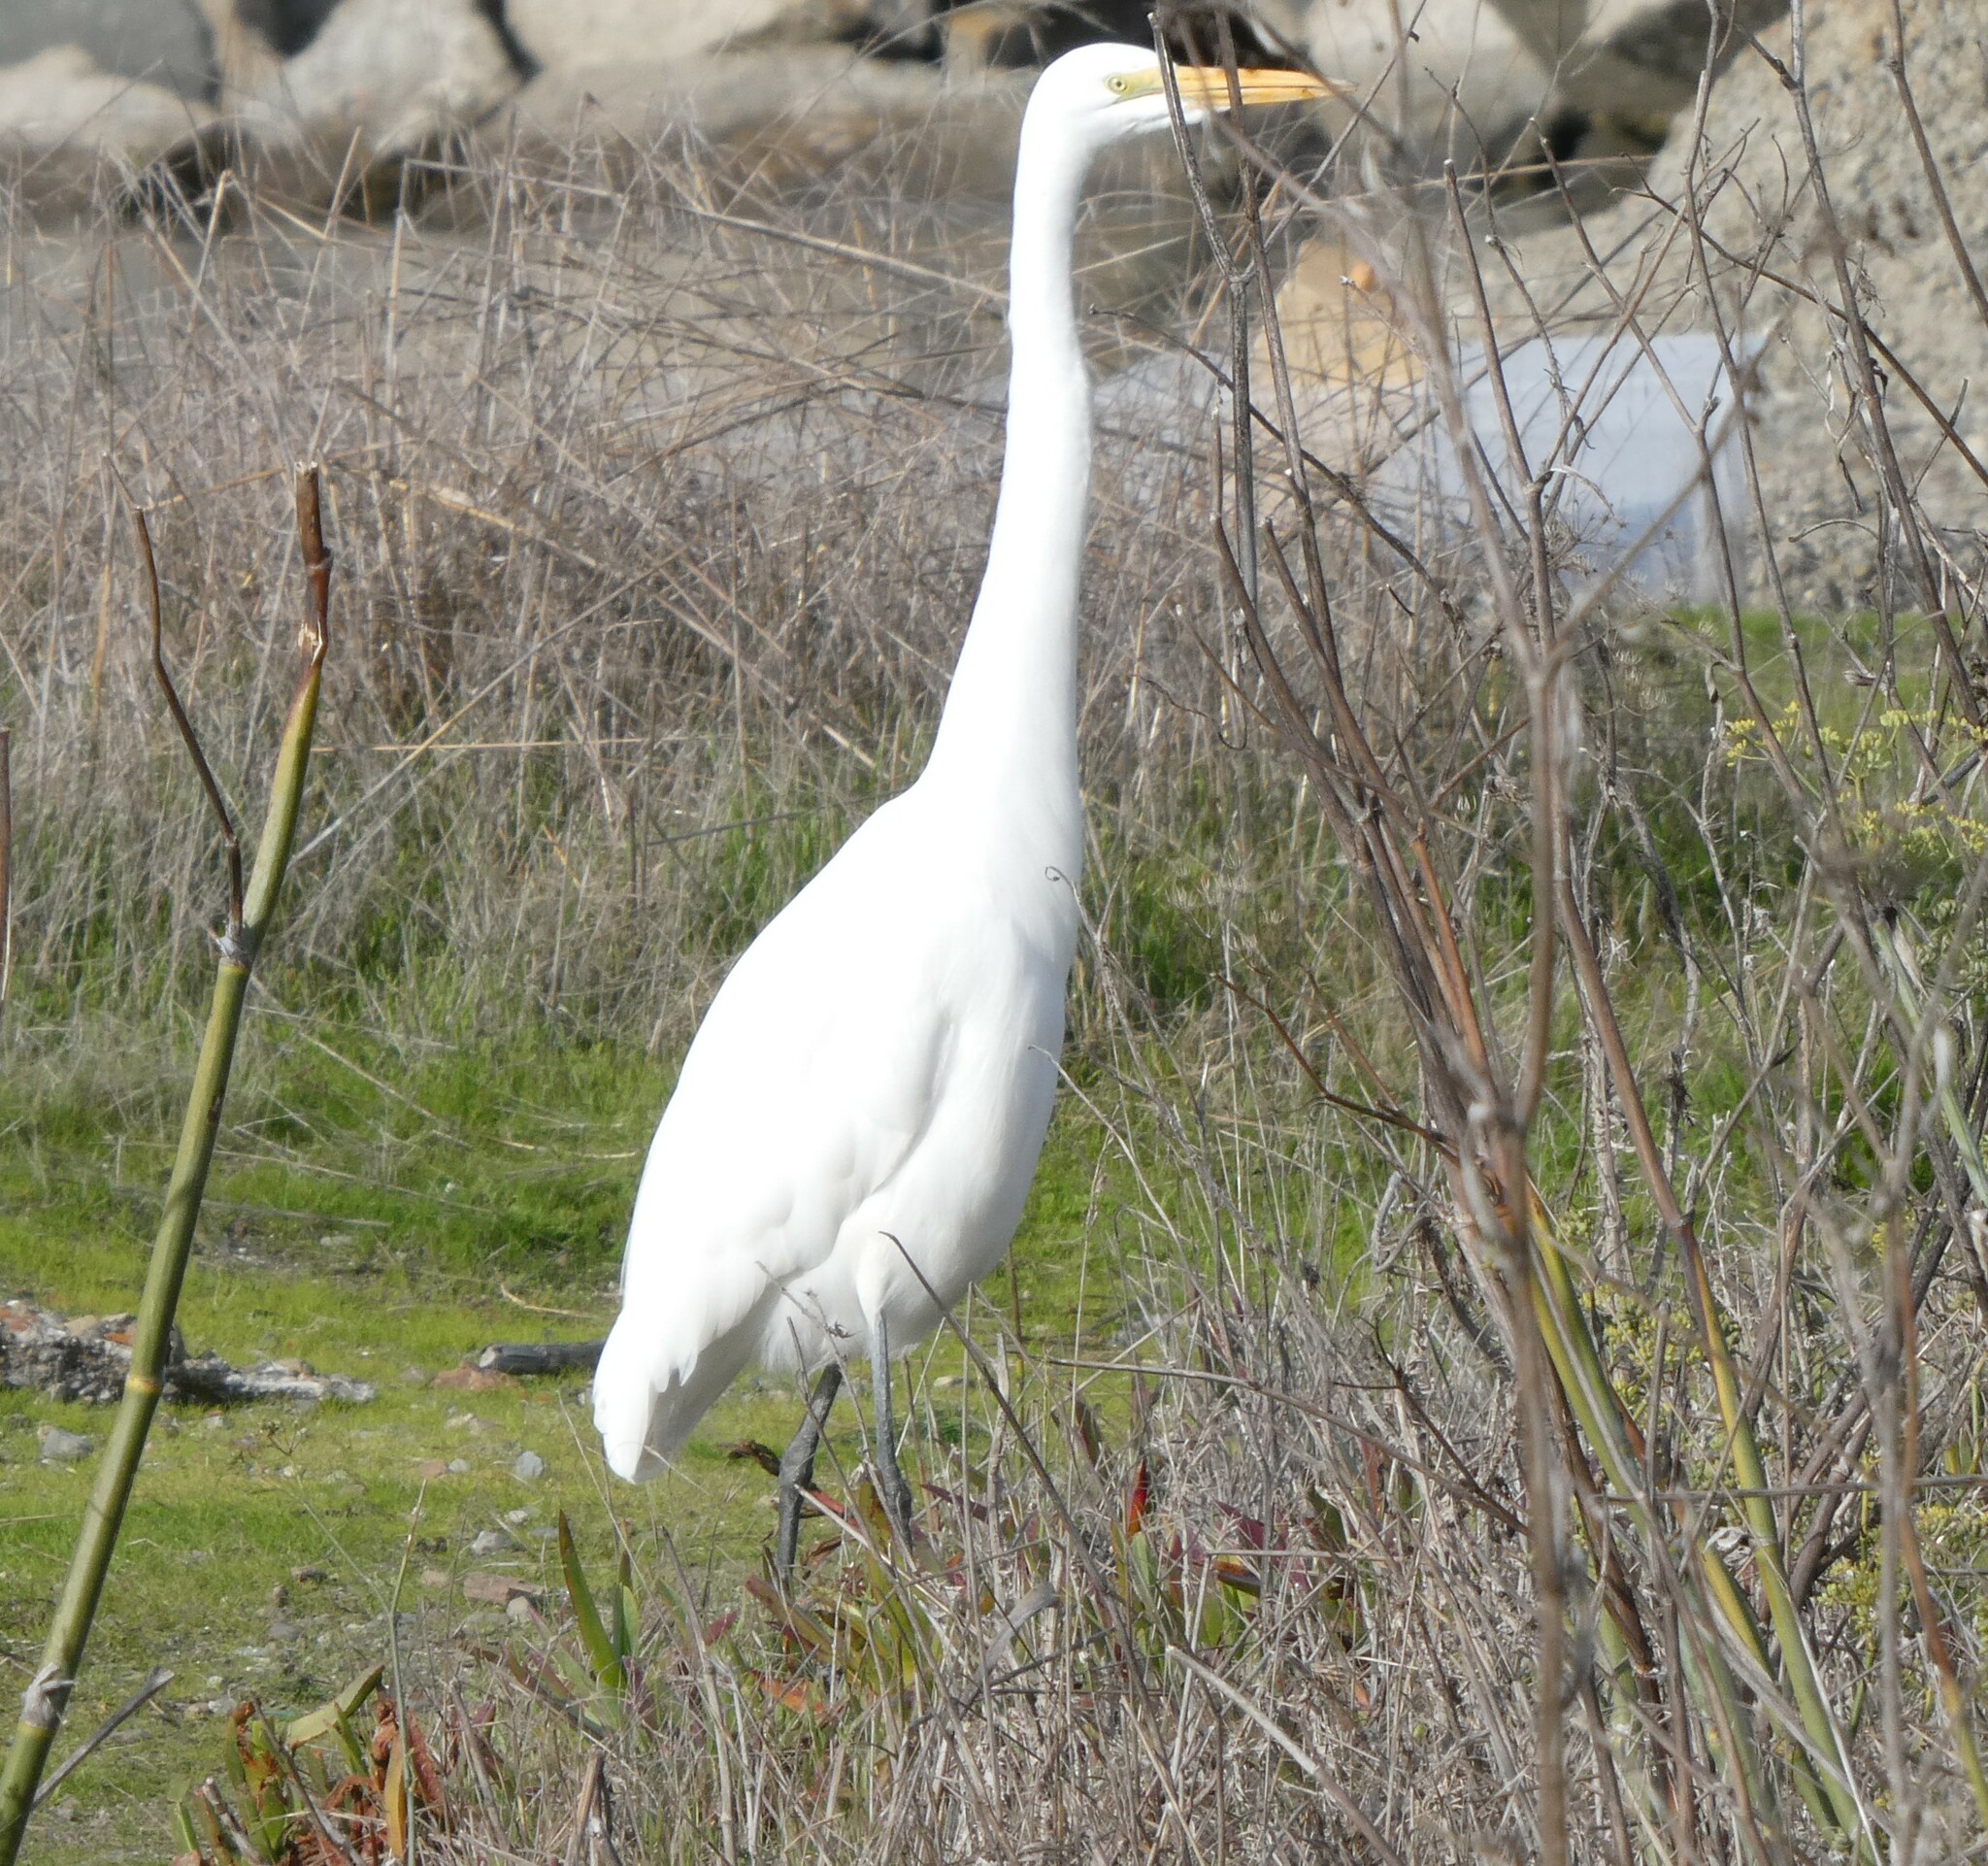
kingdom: Animalia
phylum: Chordata
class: Aves
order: Pelecaniformes
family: Ardeidae
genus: Ardea
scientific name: Ardea alba
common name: Great egret
